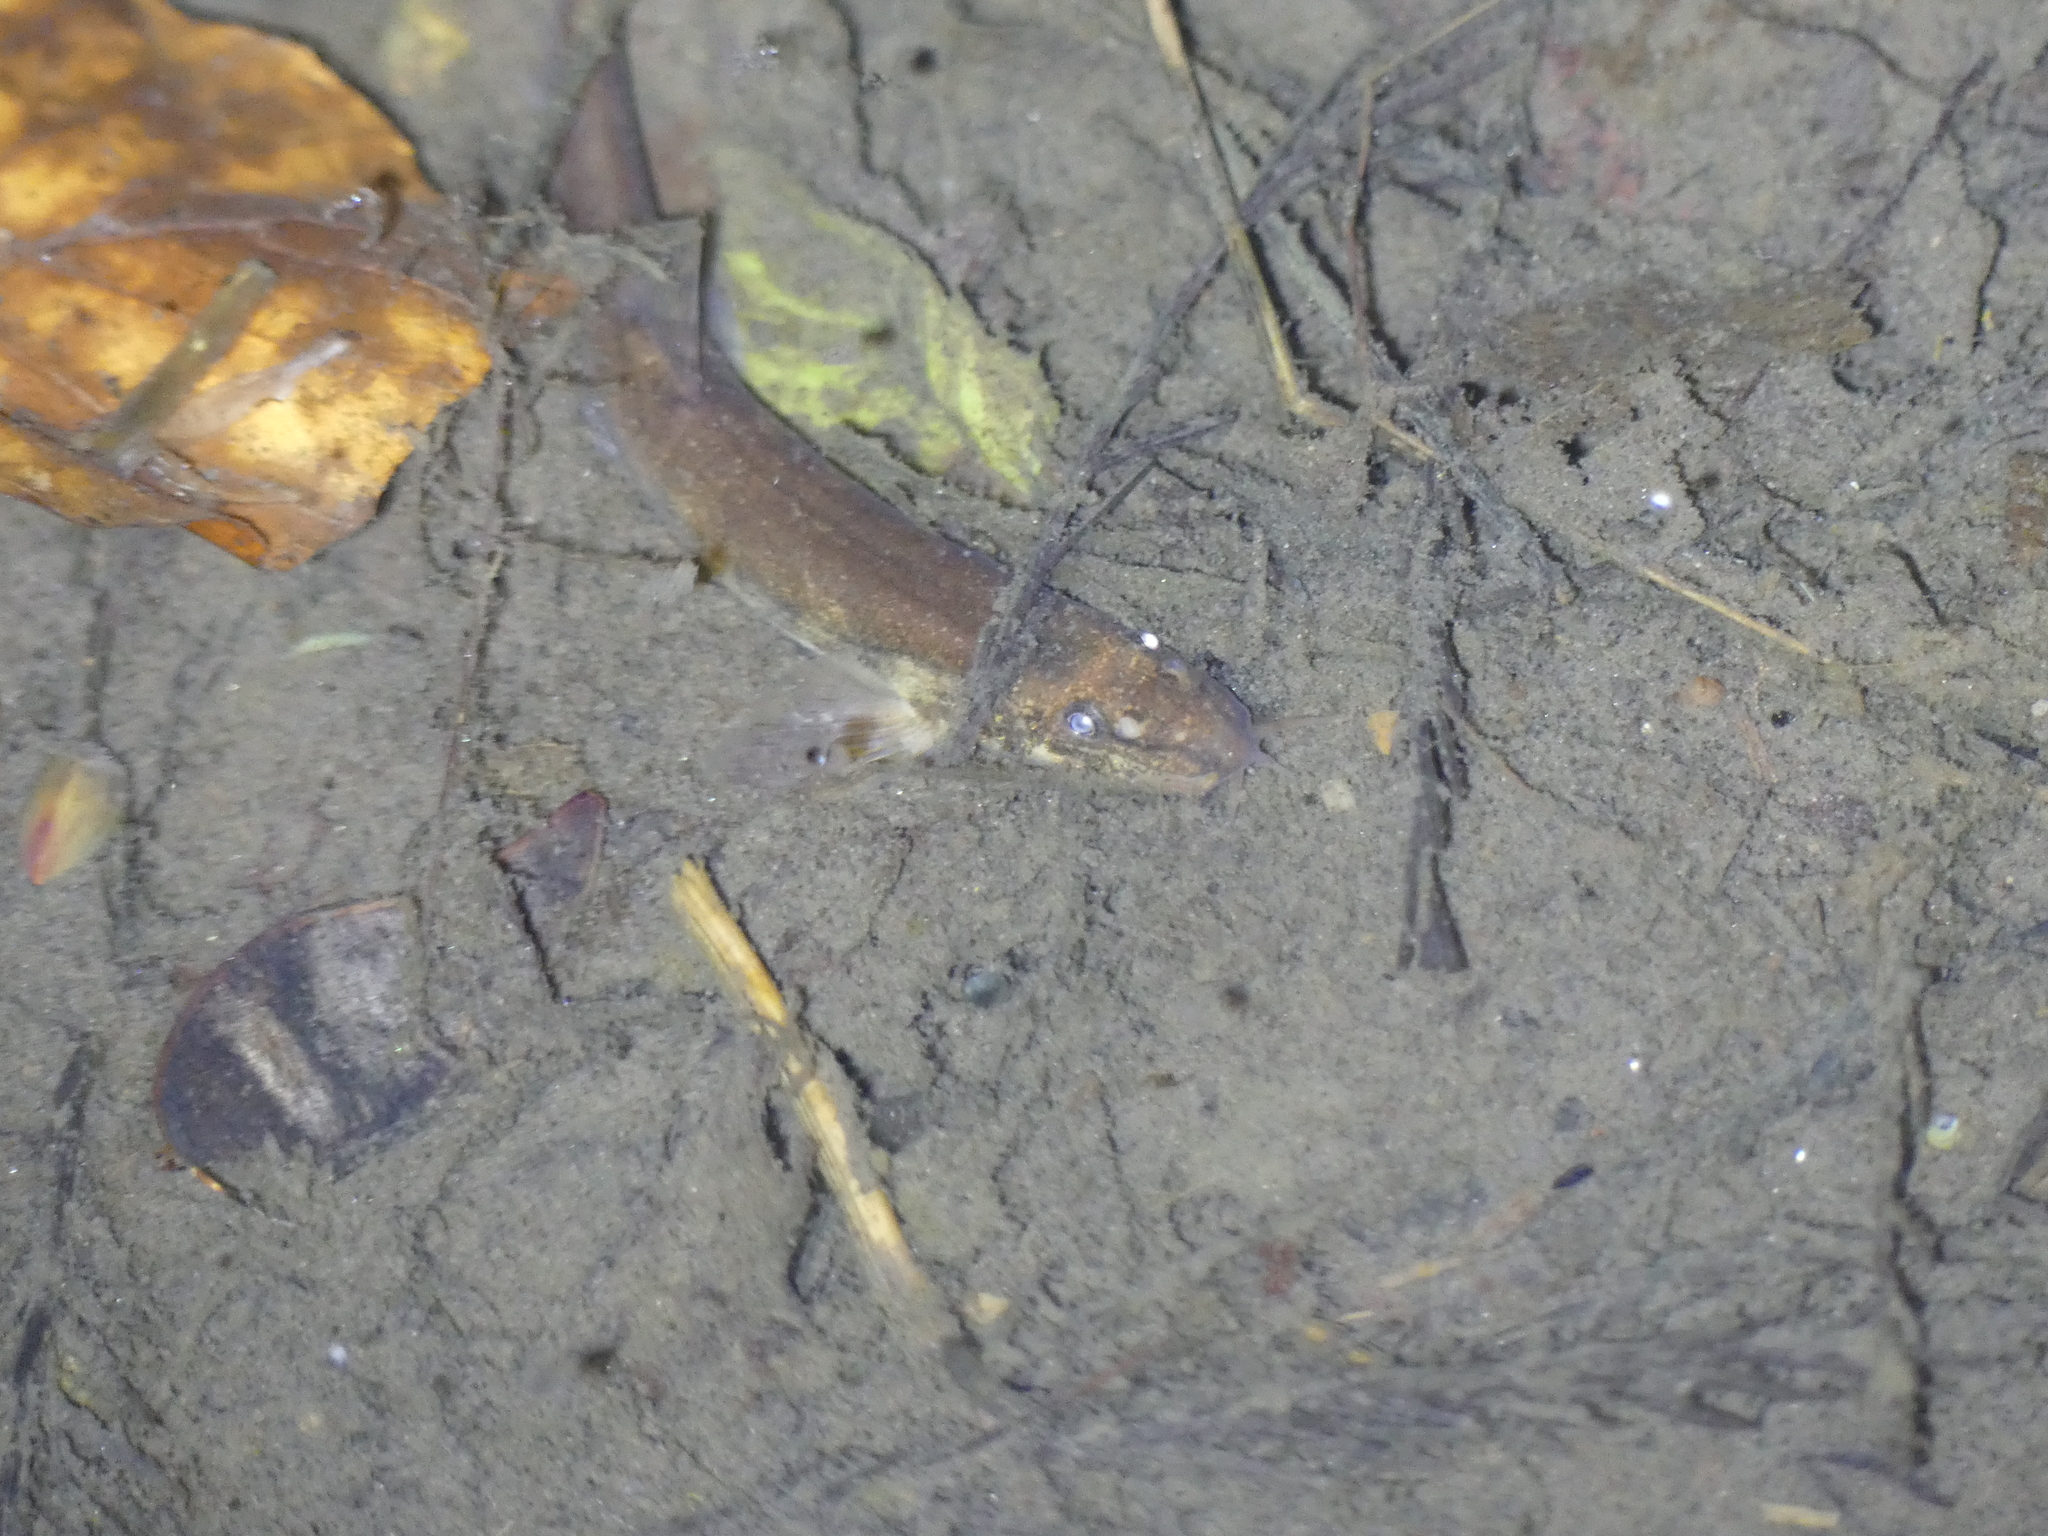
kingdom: Animalia
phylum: Chordata
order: Cypriniformes
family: Nemacheilidae
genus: Barbatula
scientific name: Barbatula barbatula
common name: Stone loach
